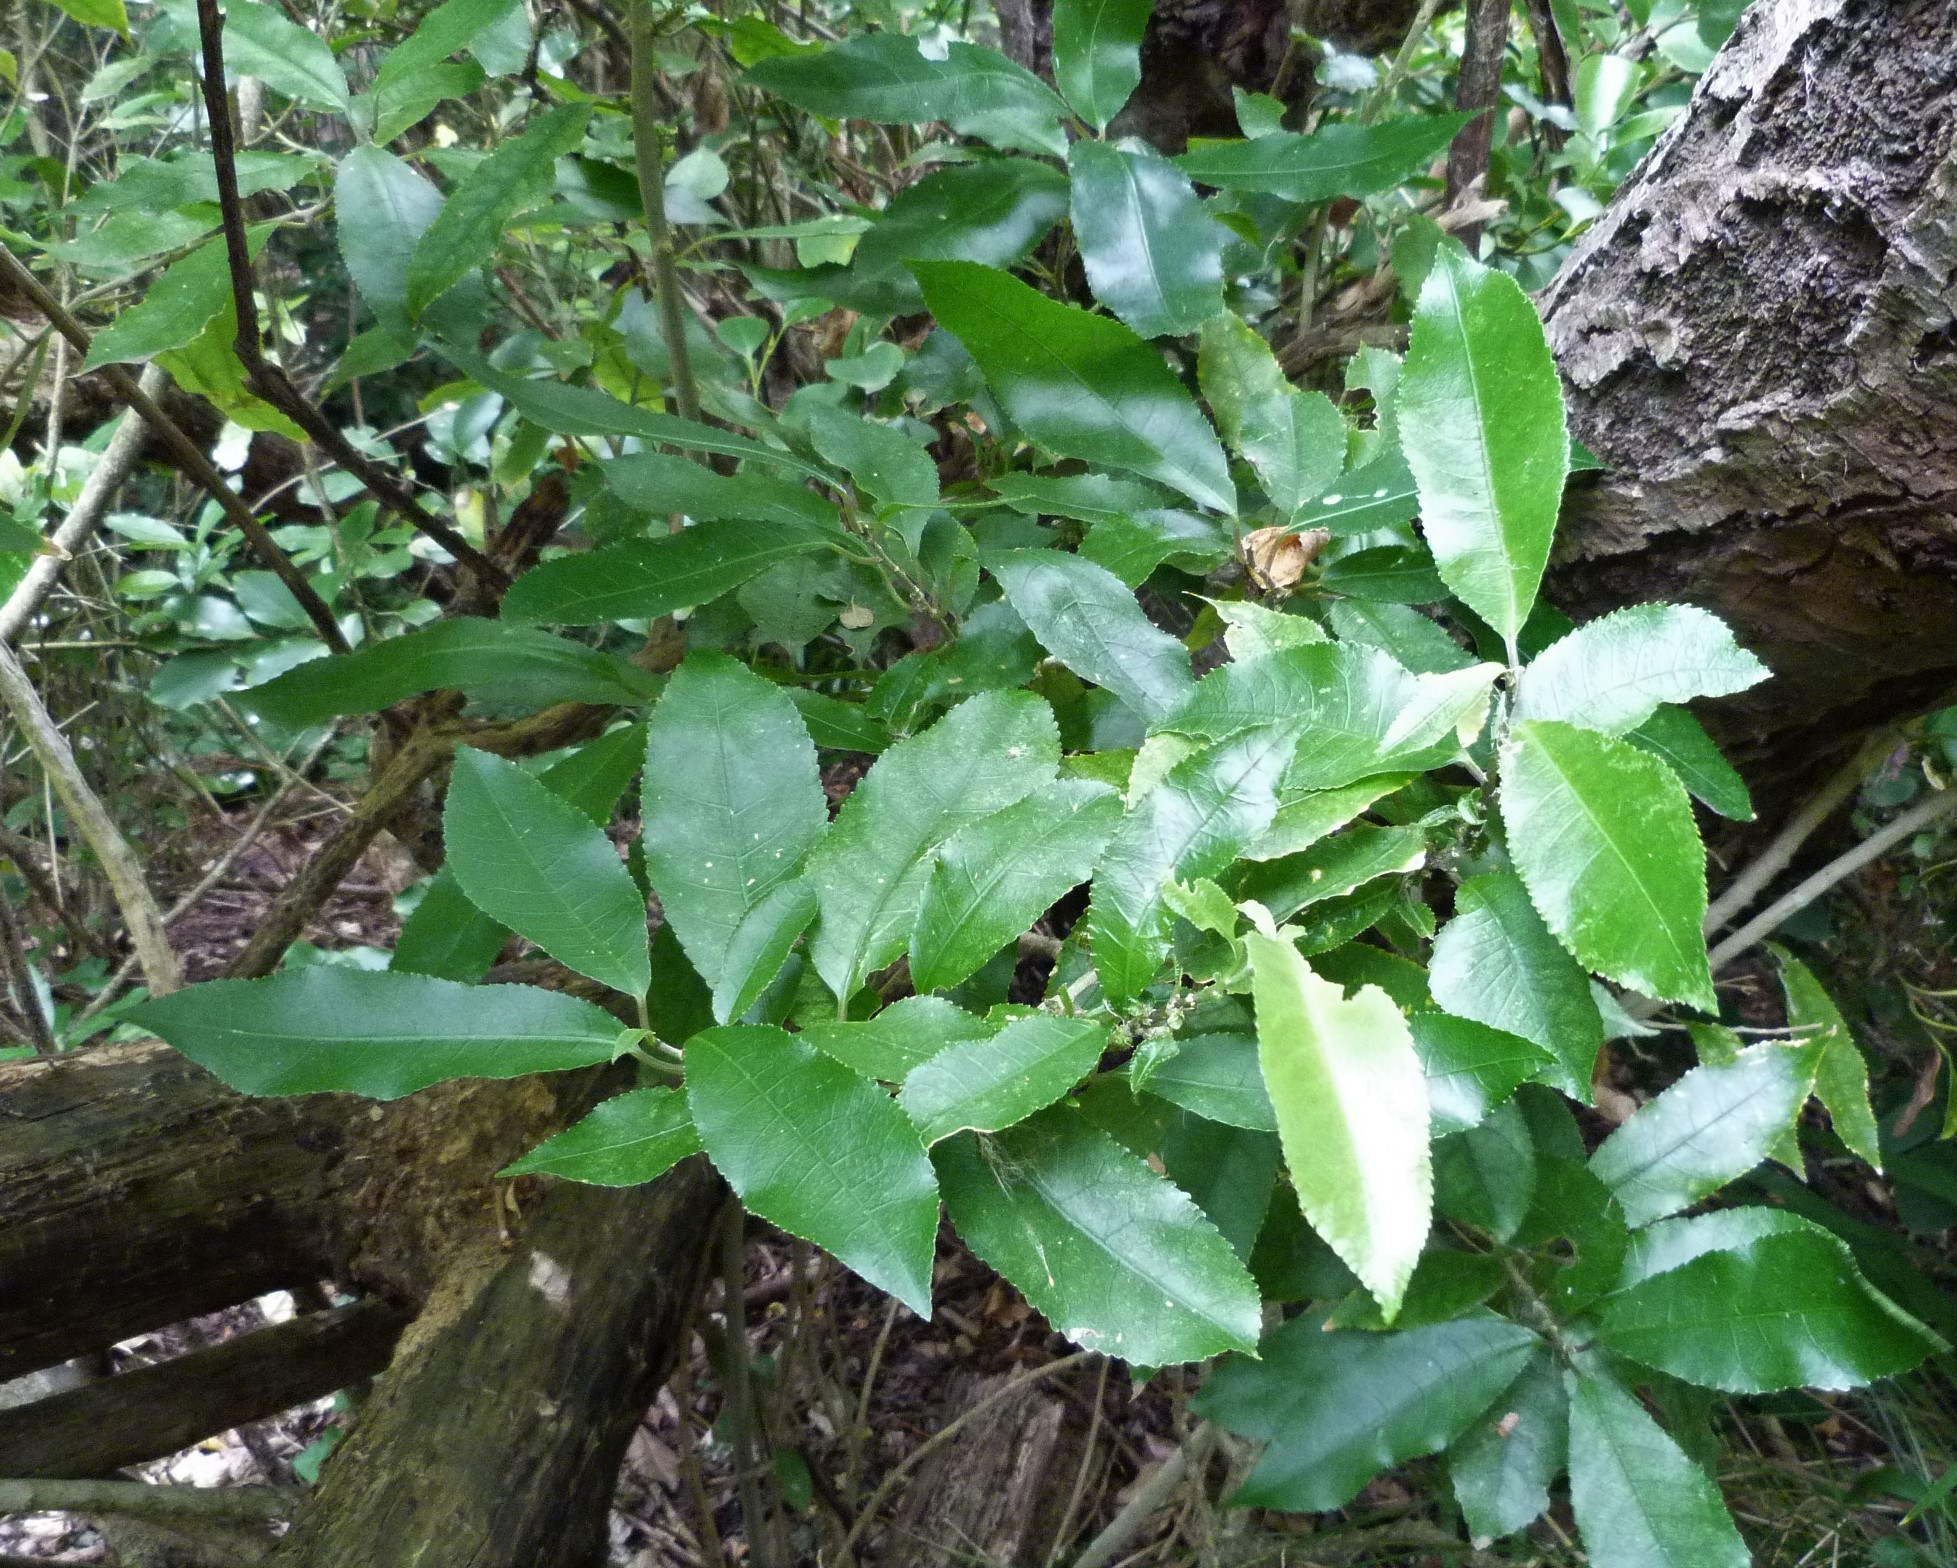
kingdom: Plantae
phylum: Tracheophyta
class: Magnoliopsida
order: Malpighiales
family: Violaceae
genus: Melicytus
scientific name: Melicytus ramiflorus
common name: Mahoe
